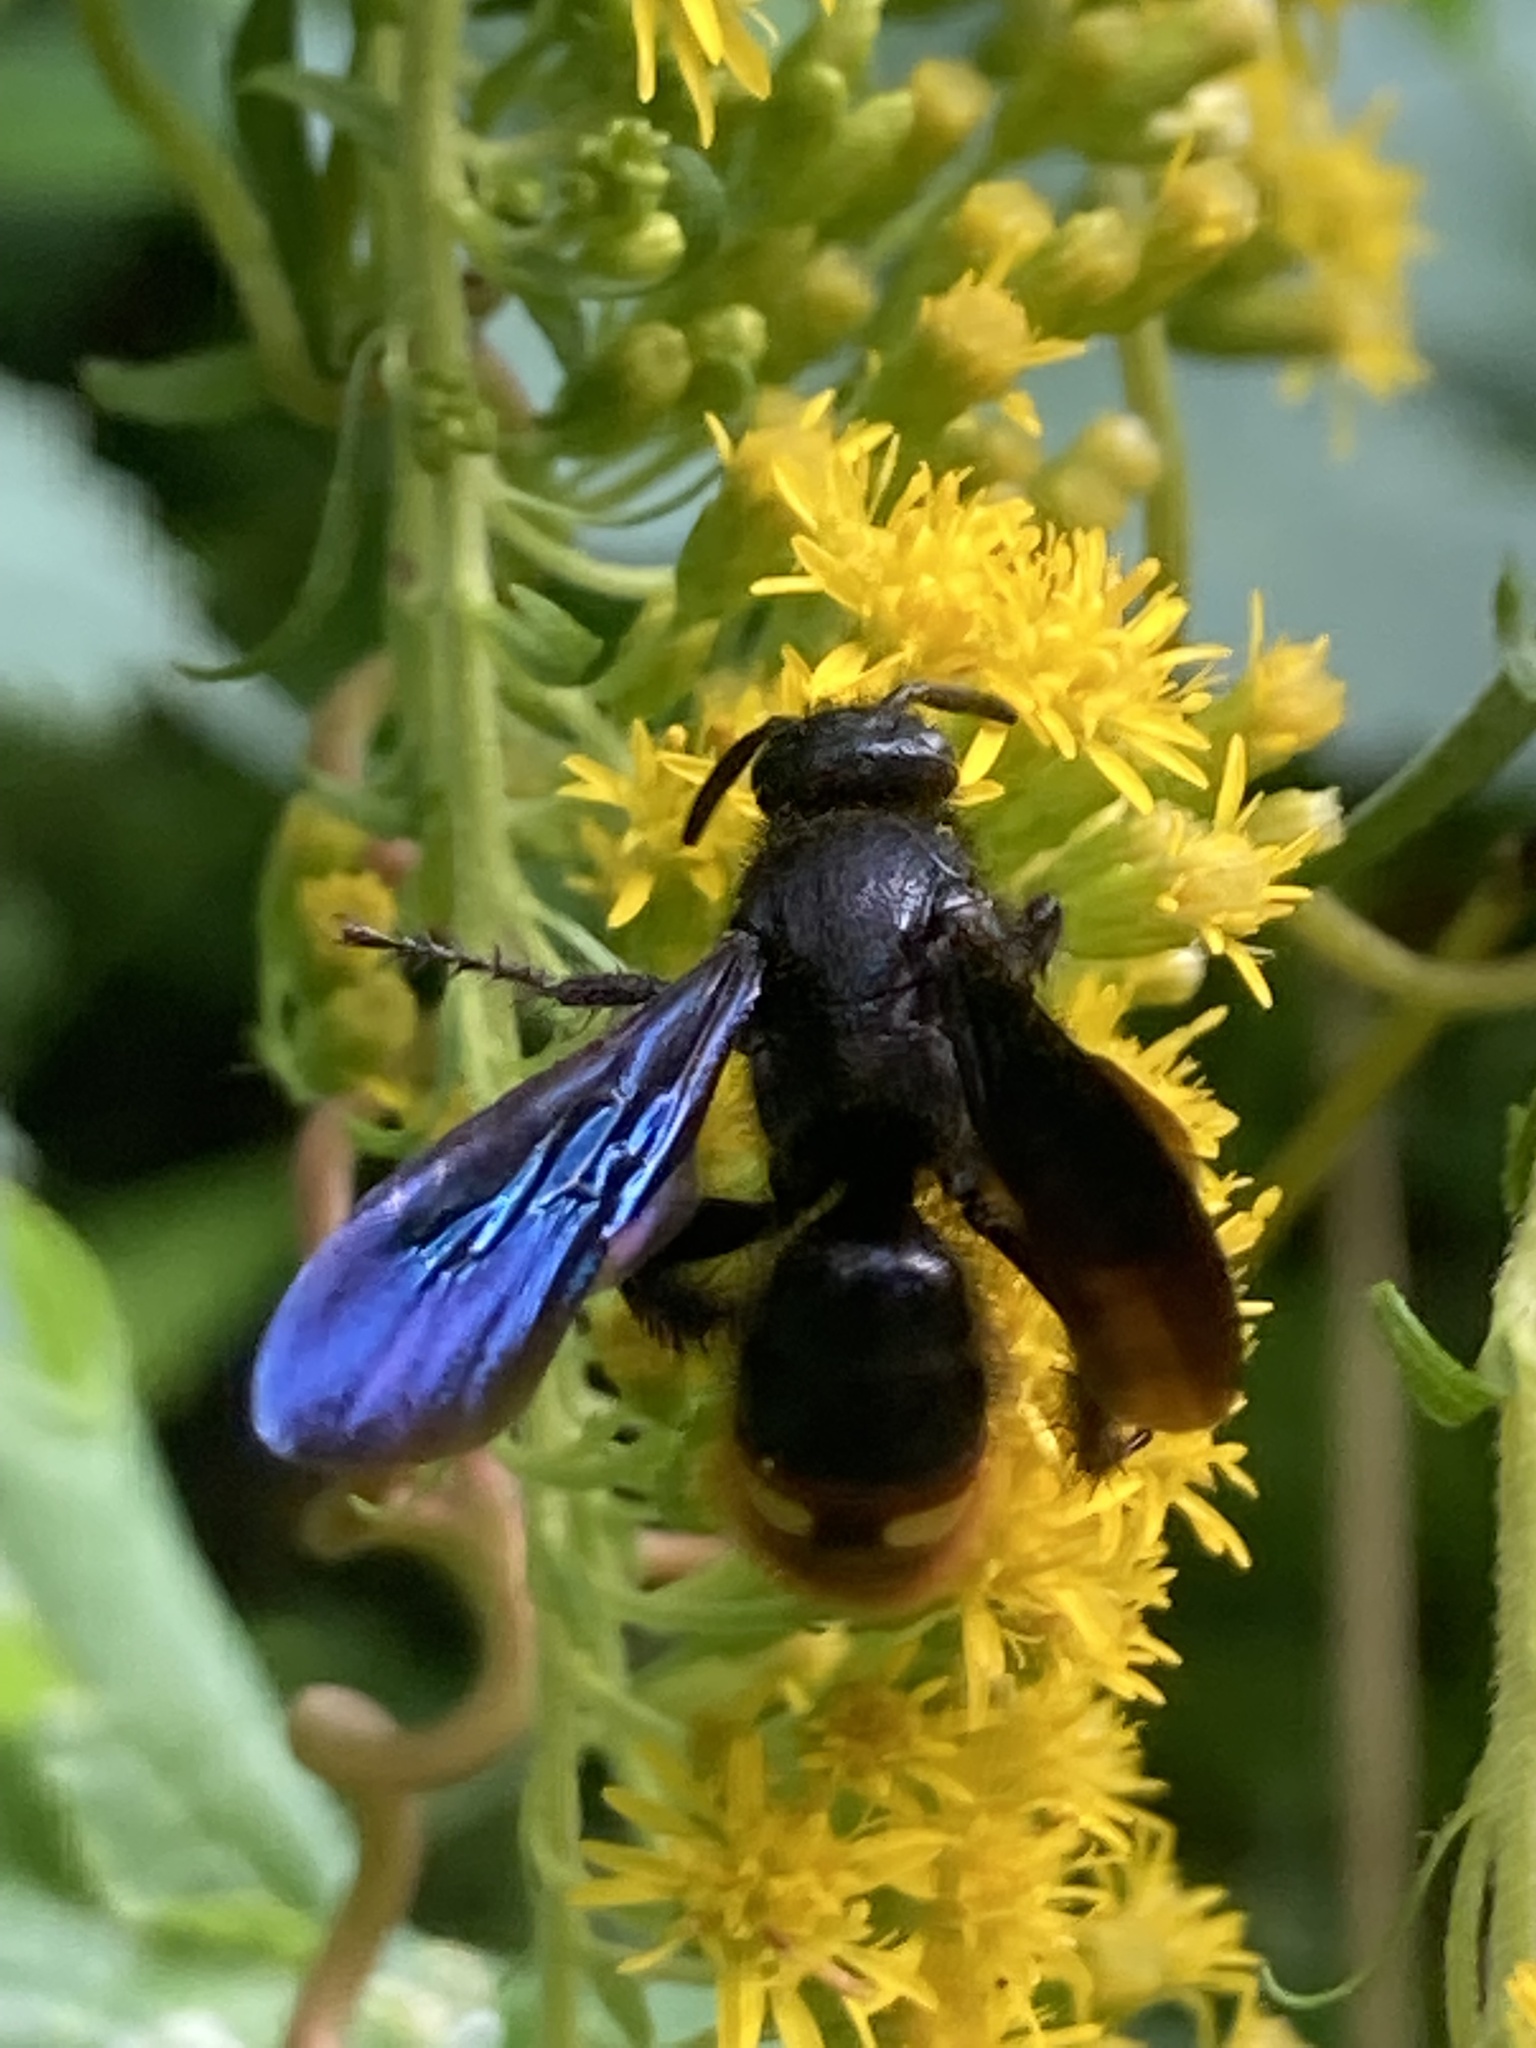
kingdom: Animalia
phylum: Arthropoda
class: Insecta
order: Hymenoptera
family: Scoliidae
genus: Scolia
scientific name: Scolia dubia
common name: Blue-winged scoliid wasp
